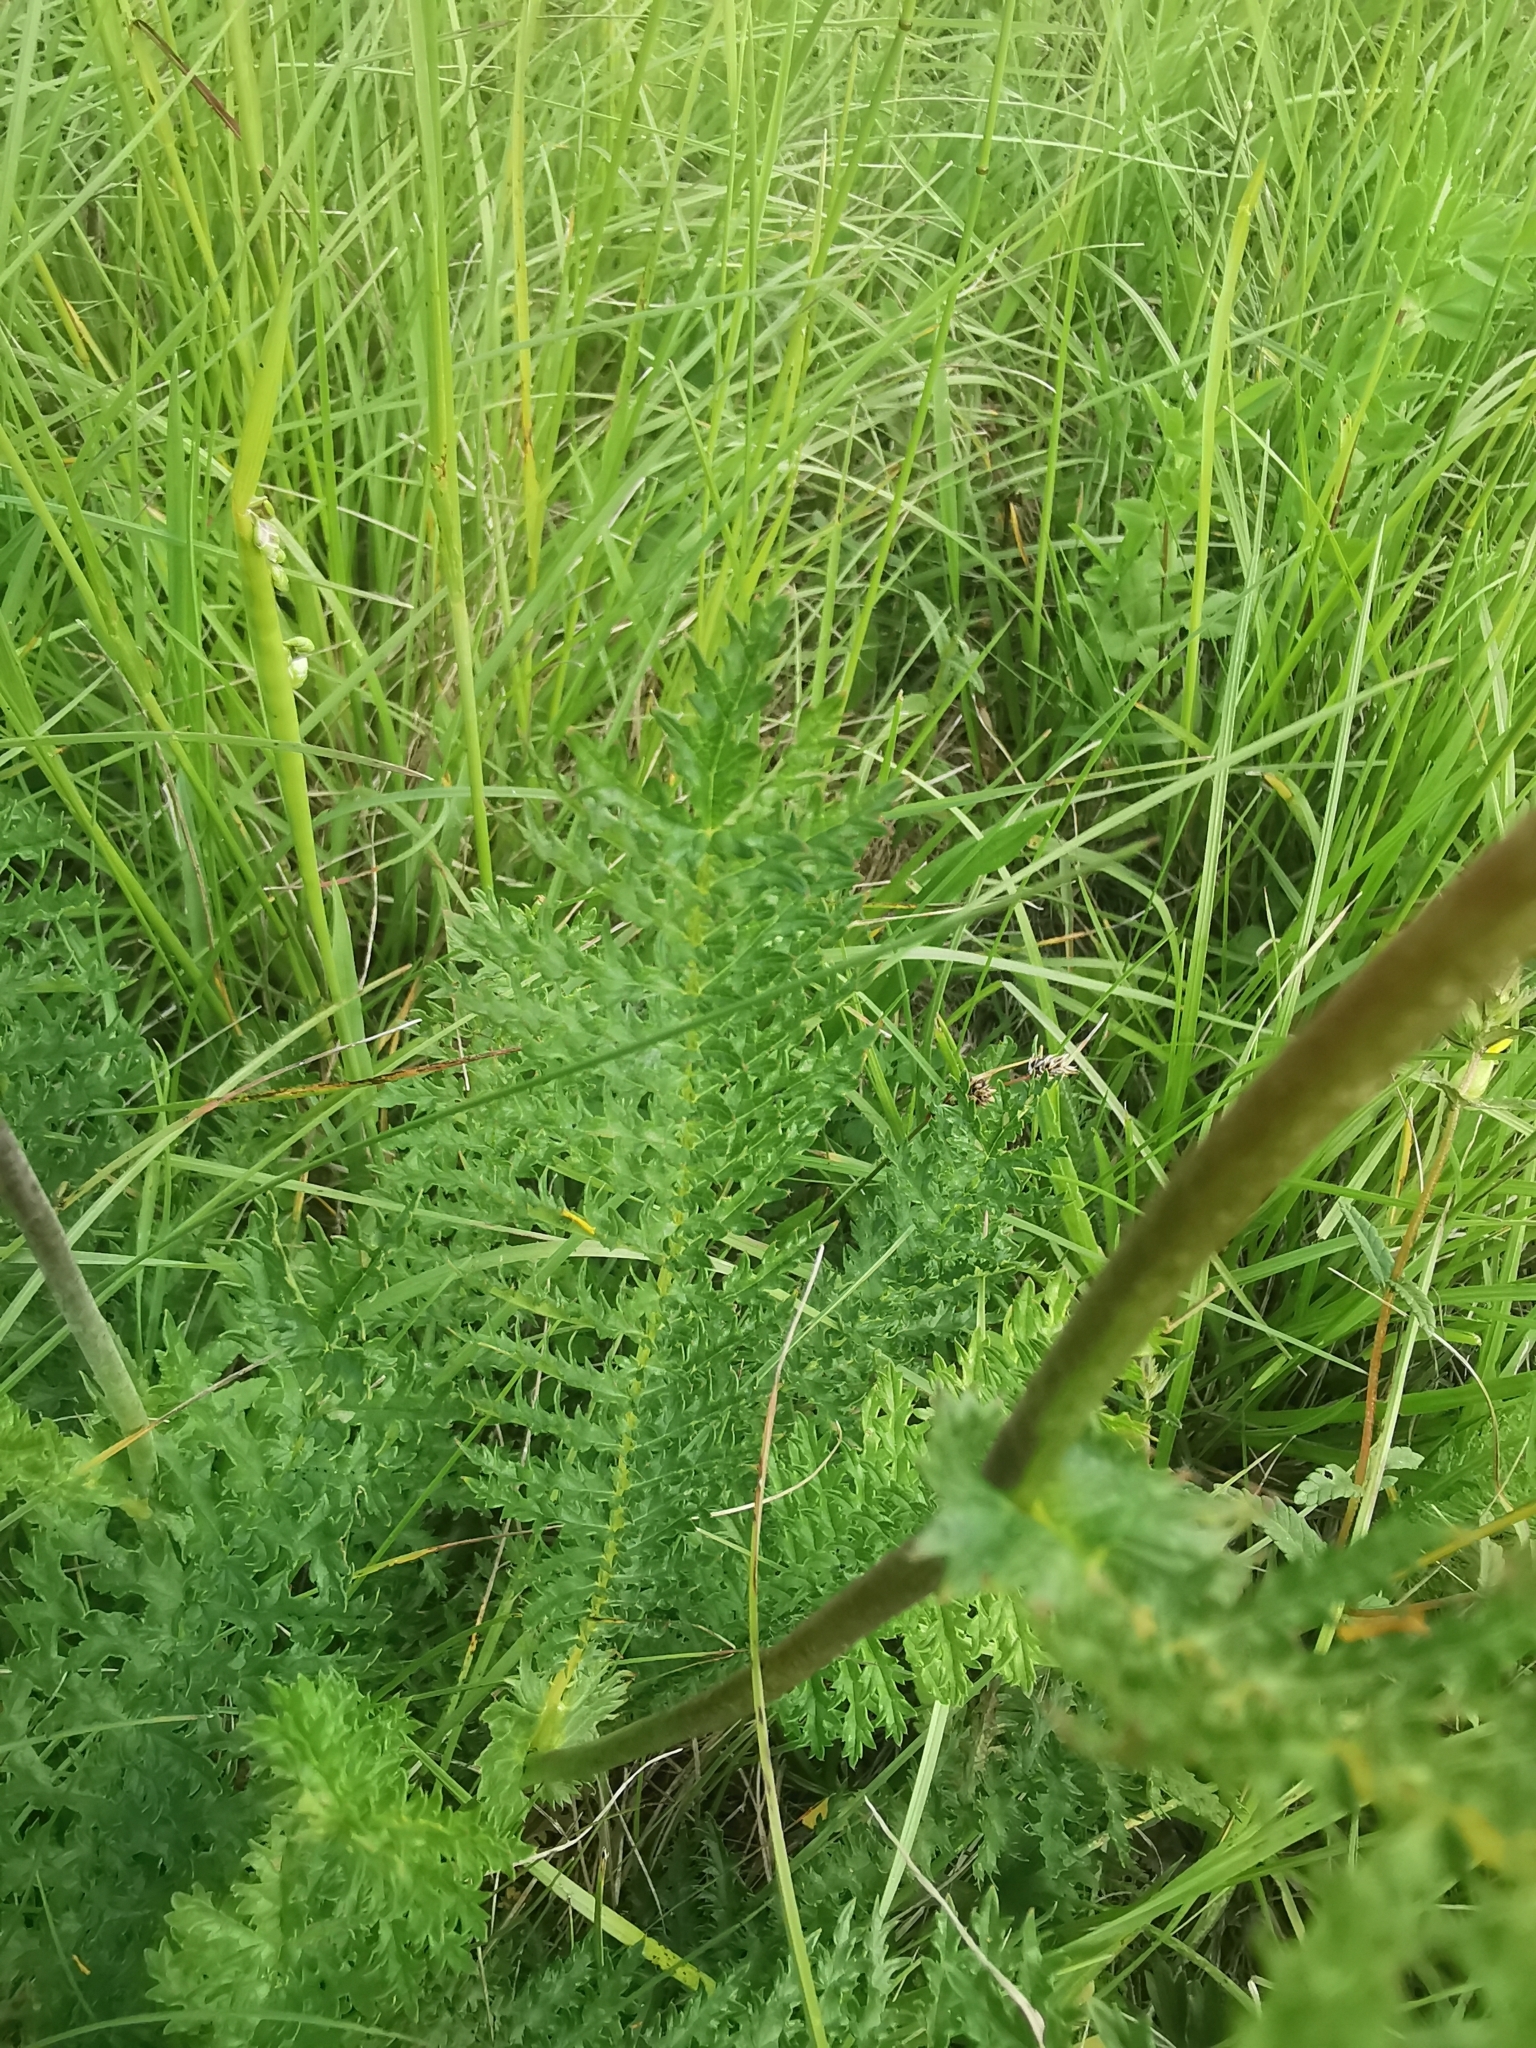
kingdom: Plantae
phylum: Tracheophyta
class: Magnoliopsida
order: Rosales
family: Rosaceae
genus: Filipendula
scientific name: Filipendula vulgaris
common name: Dropwort
